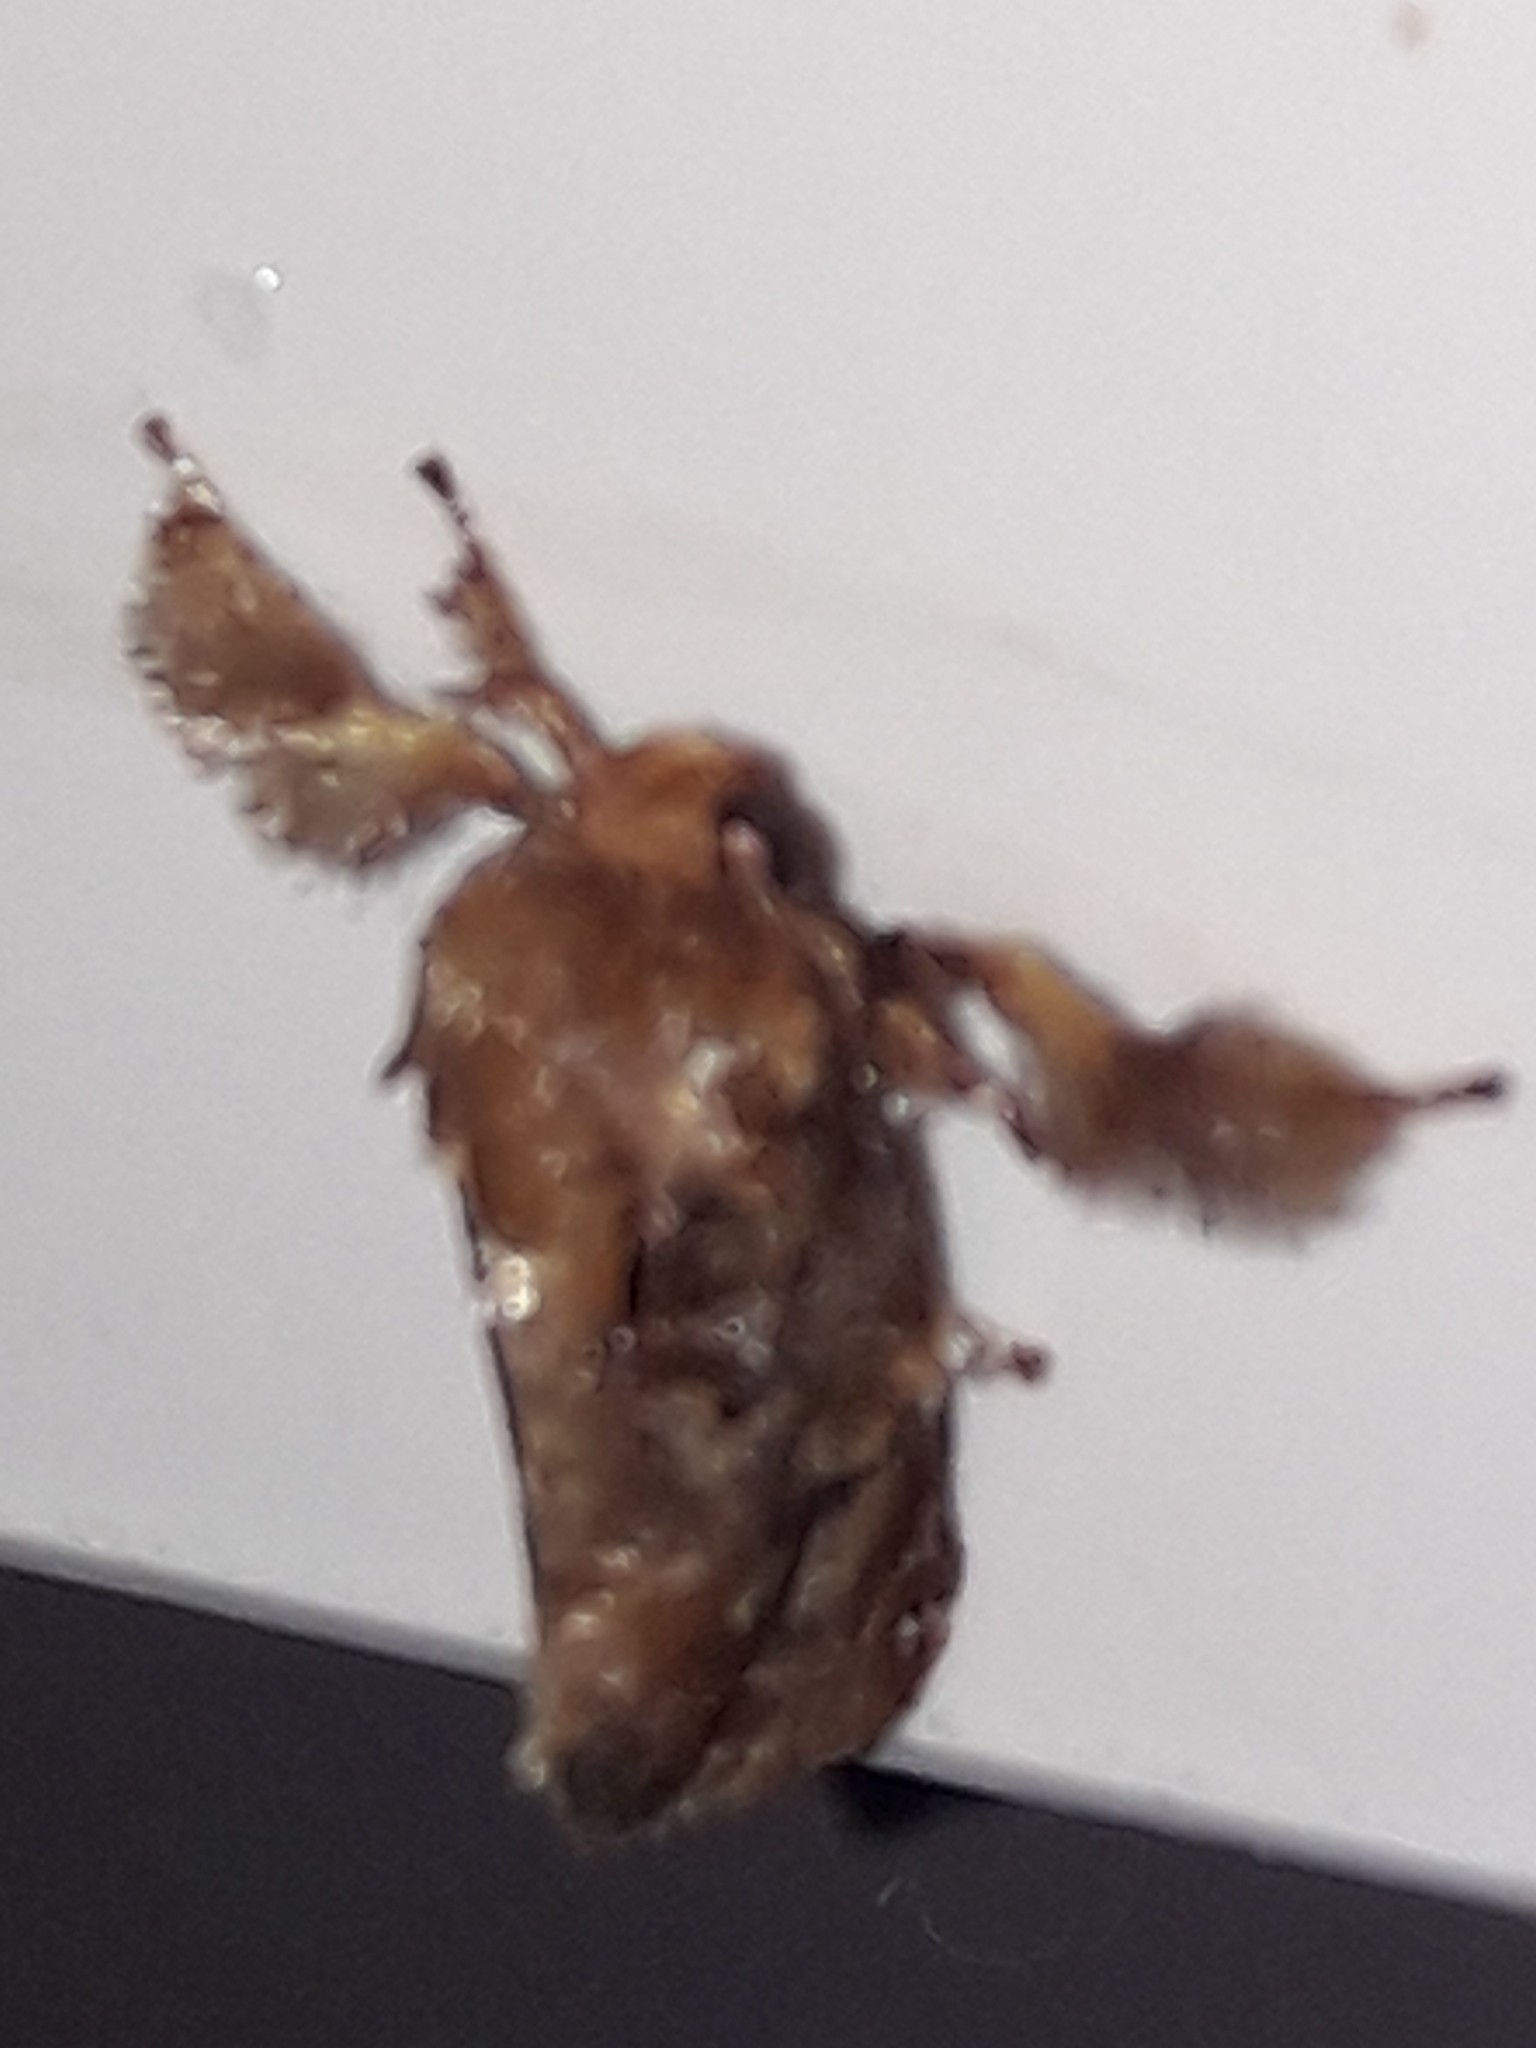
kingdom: Animalia
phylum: Arthropoda
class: Insecta
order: Lepidoptera
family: Limacodidae
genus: Isochaetes
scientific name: Isochaetes rufescens
